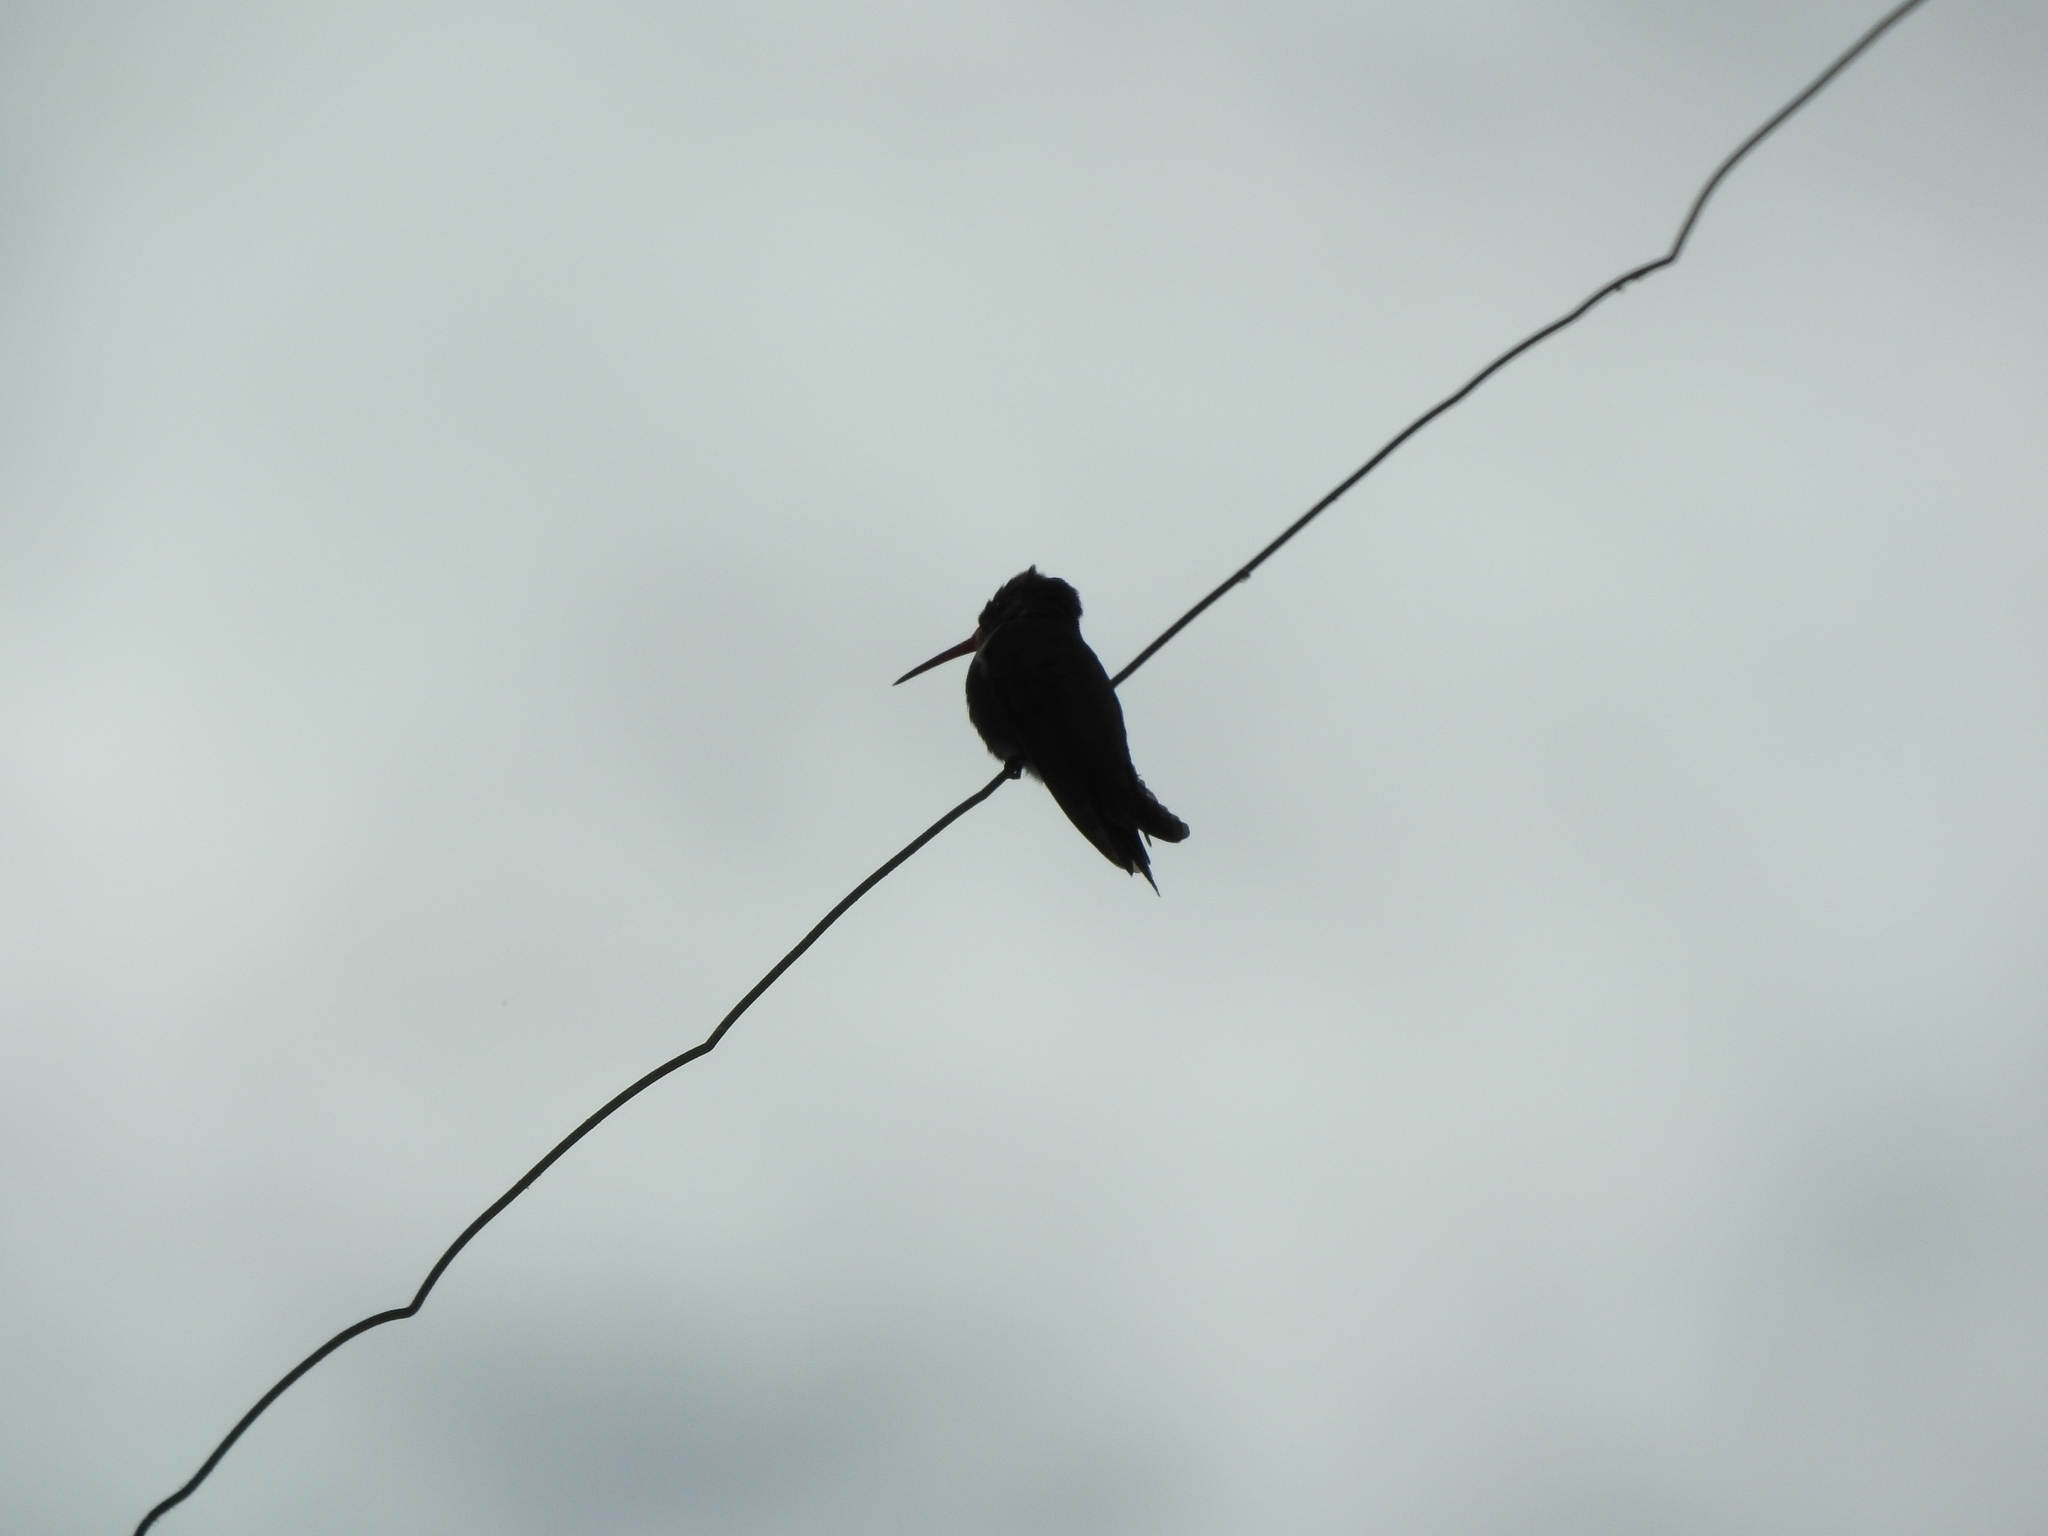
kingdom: Animalia
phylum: Chordata
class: Aves
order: Apodiformes
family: Trochilidae
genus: Cynanthus
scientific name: Cynanthus latirostris
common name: Broad-billed hummingbird
